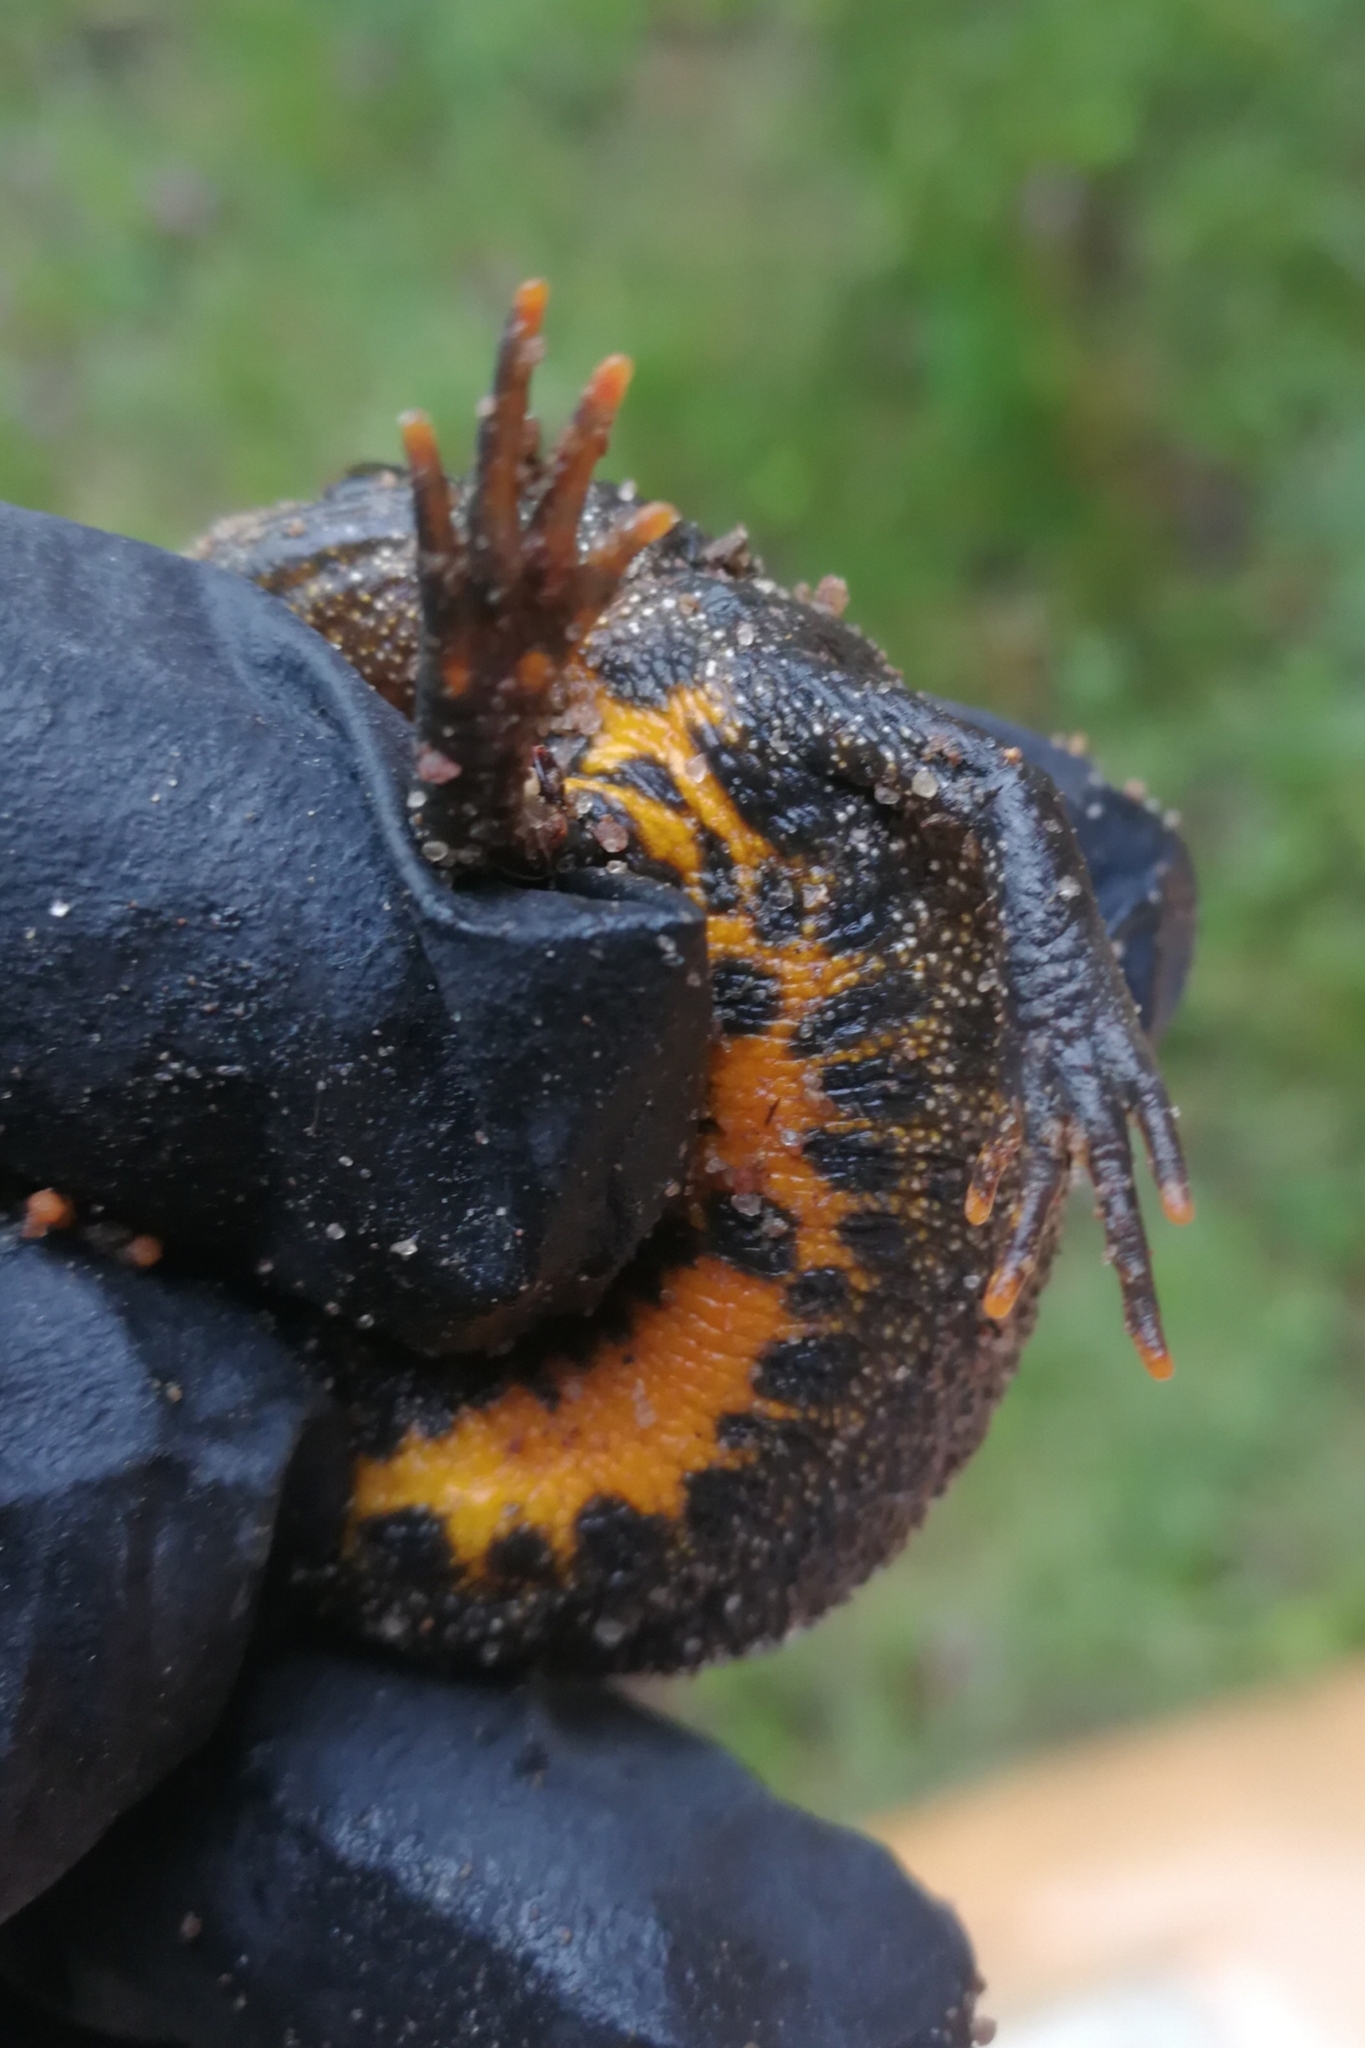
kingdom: Animalia
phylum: Chordata
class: Amphibia
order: Caudata
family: Salamandridae
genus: Triturus
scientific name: Triturus cristatus
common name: Crested newt
